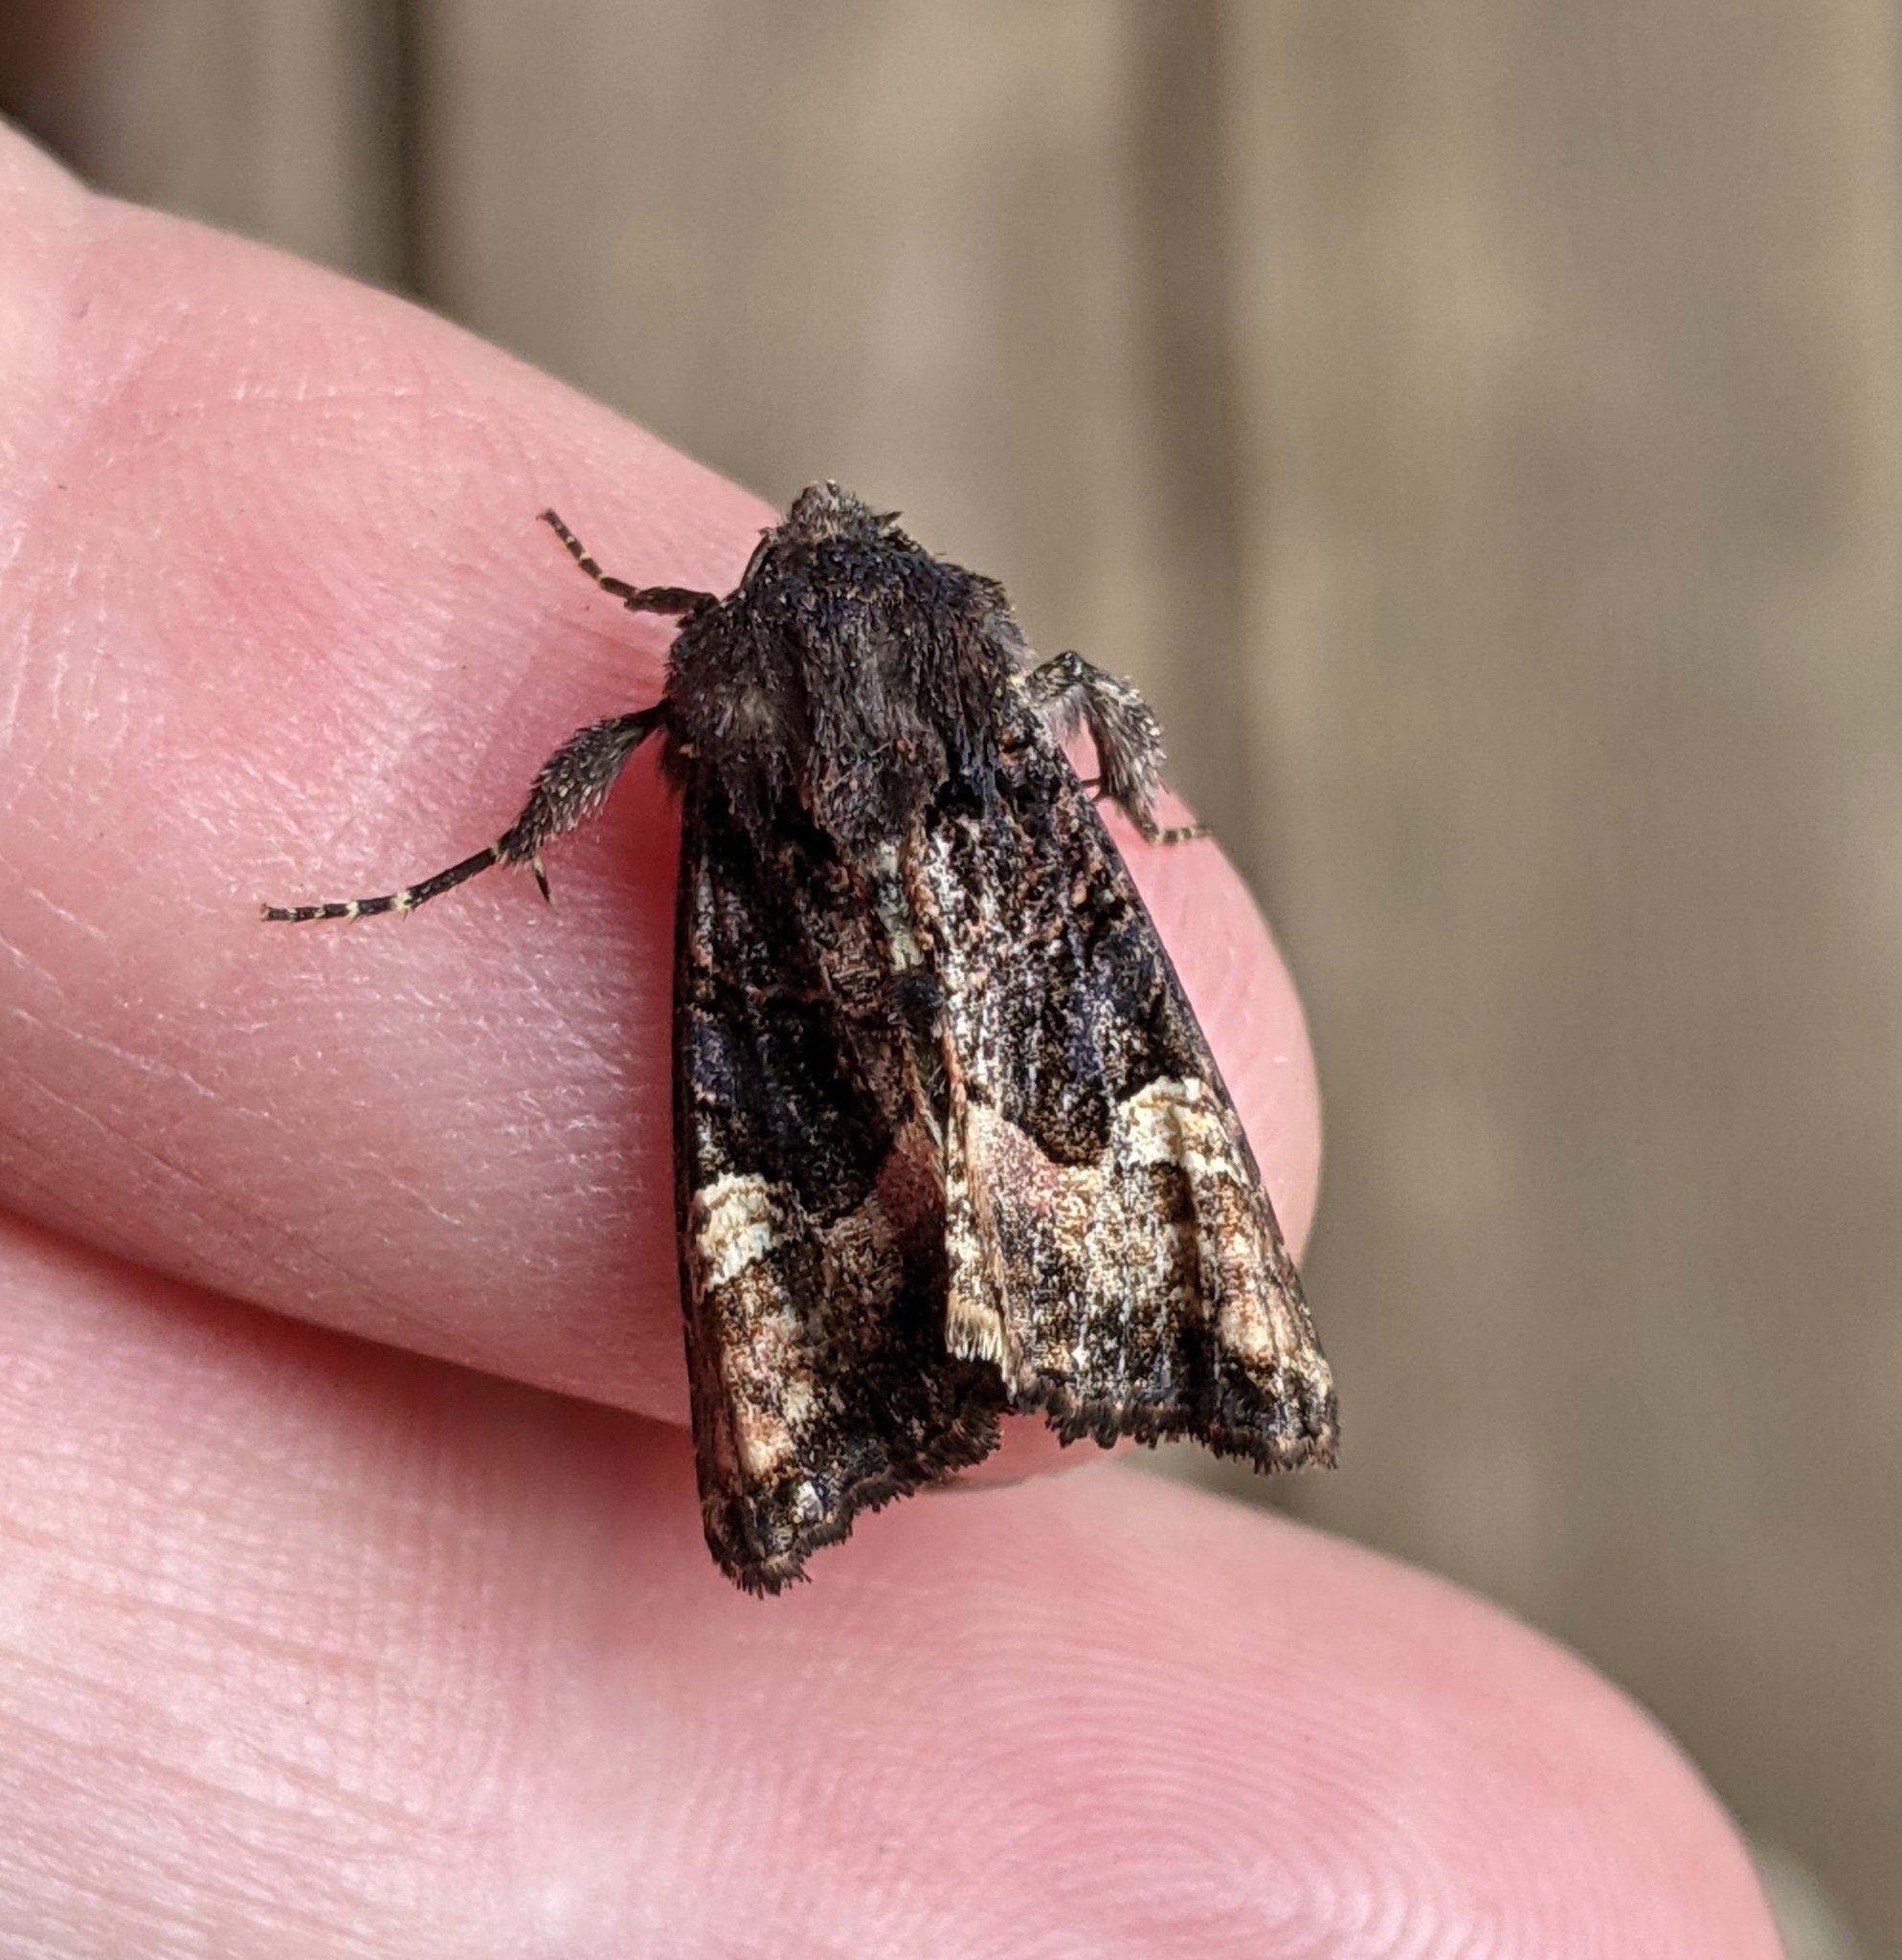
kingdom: Animalia
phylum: Arthropoda
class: Insecta
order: Lepidoptera
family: Noctuidae
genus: Euplexia
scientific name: Euplexia benesimilis
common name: American angle shades
